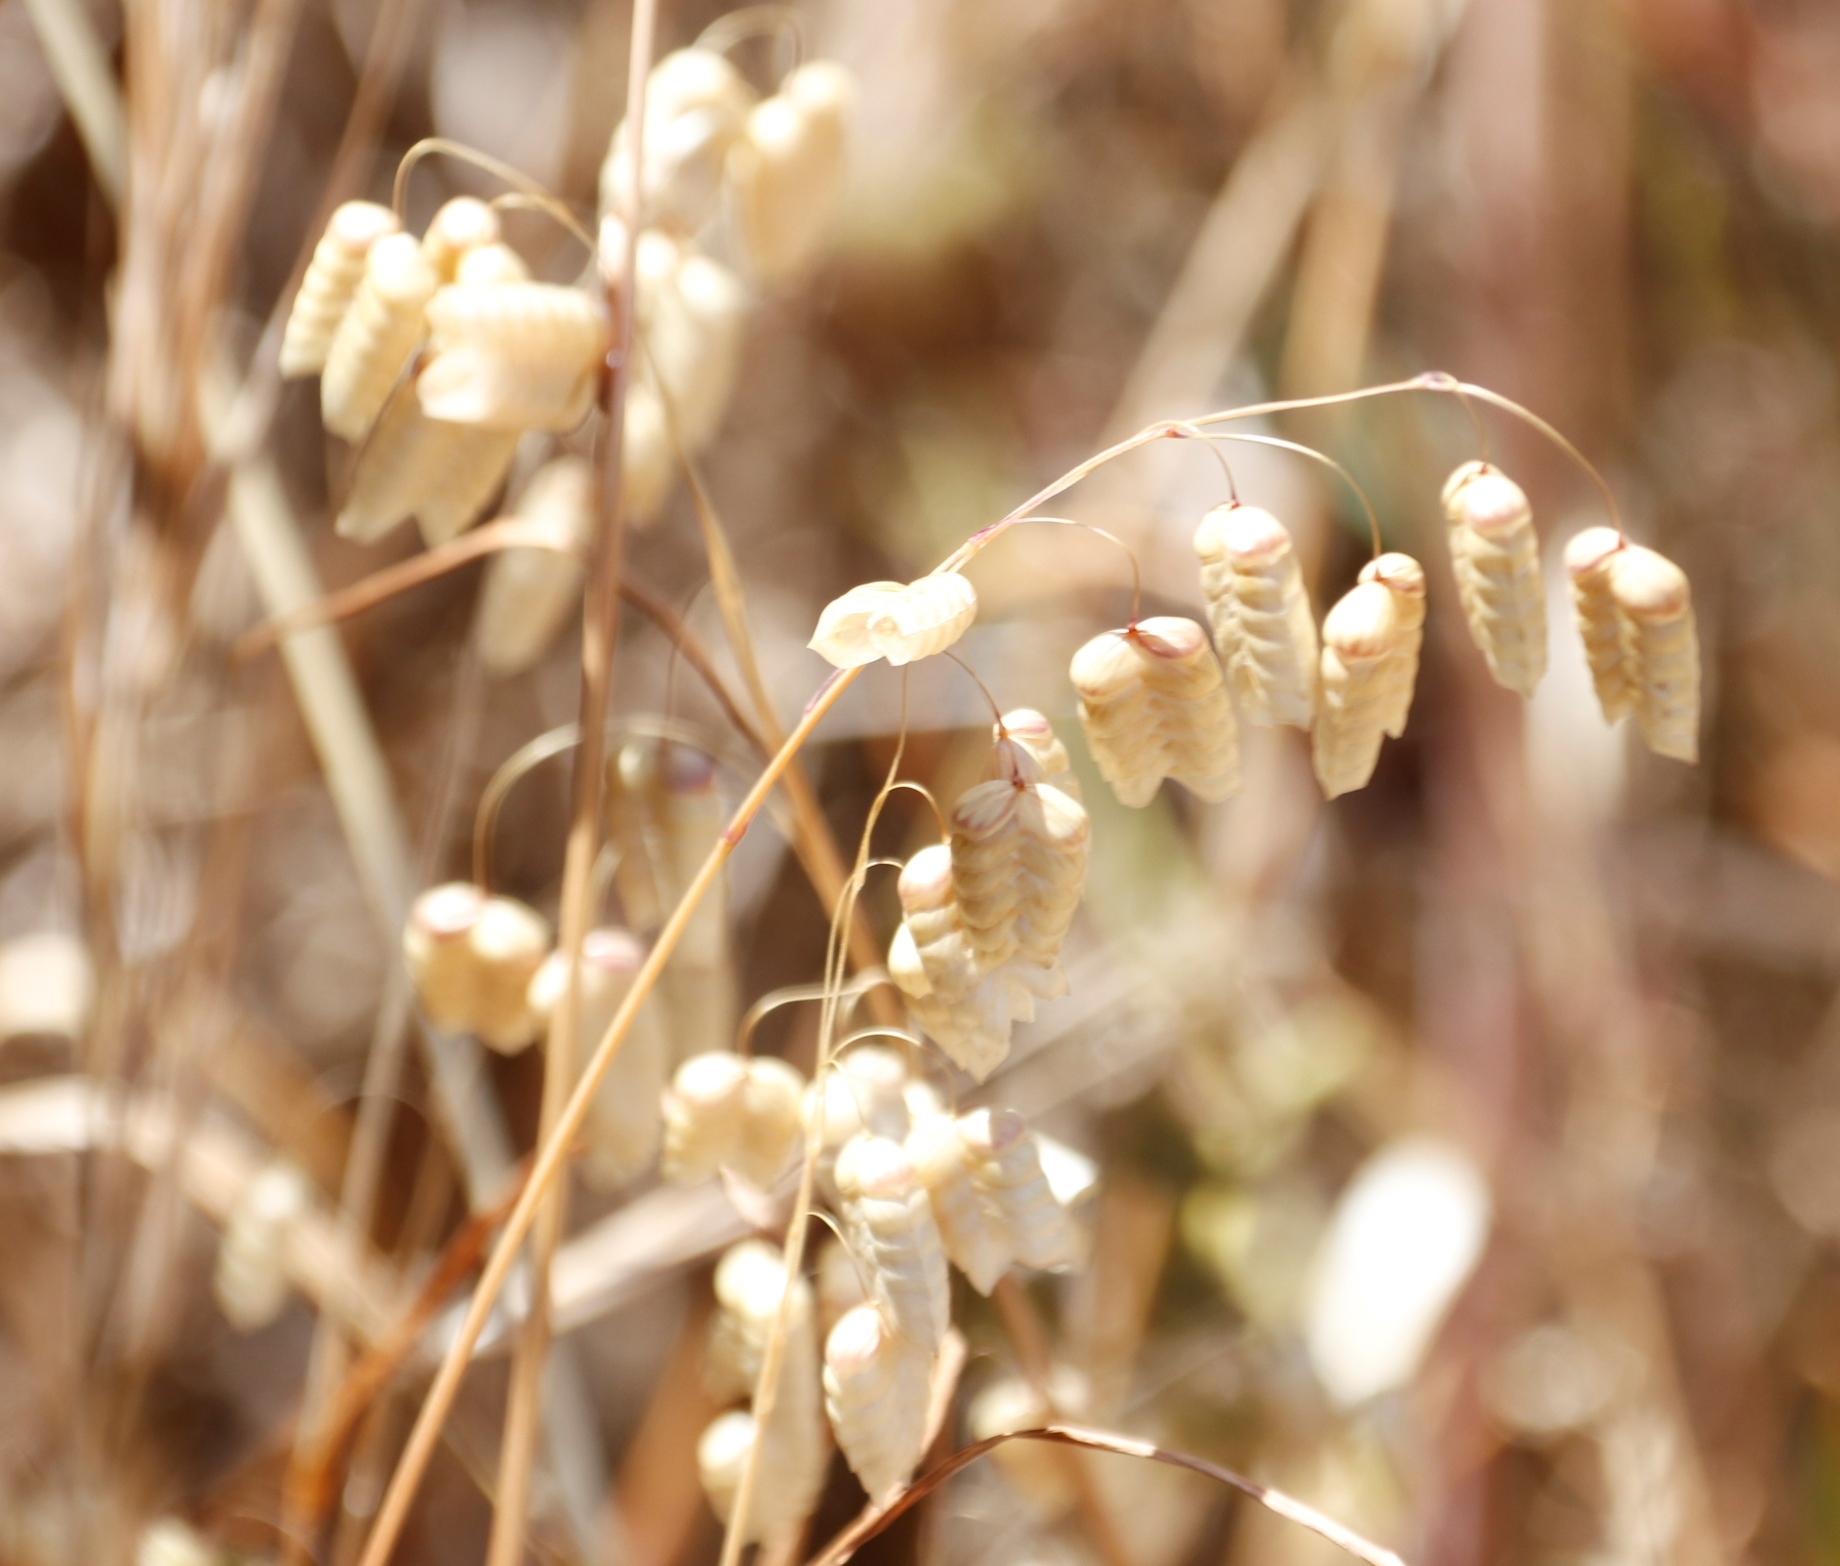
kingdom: Plantae
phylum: Tracheophyta
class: Liliopsida
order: Poales
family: Poaceae
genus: Briza
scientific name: Briza maxima
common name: Big quakinggrass
